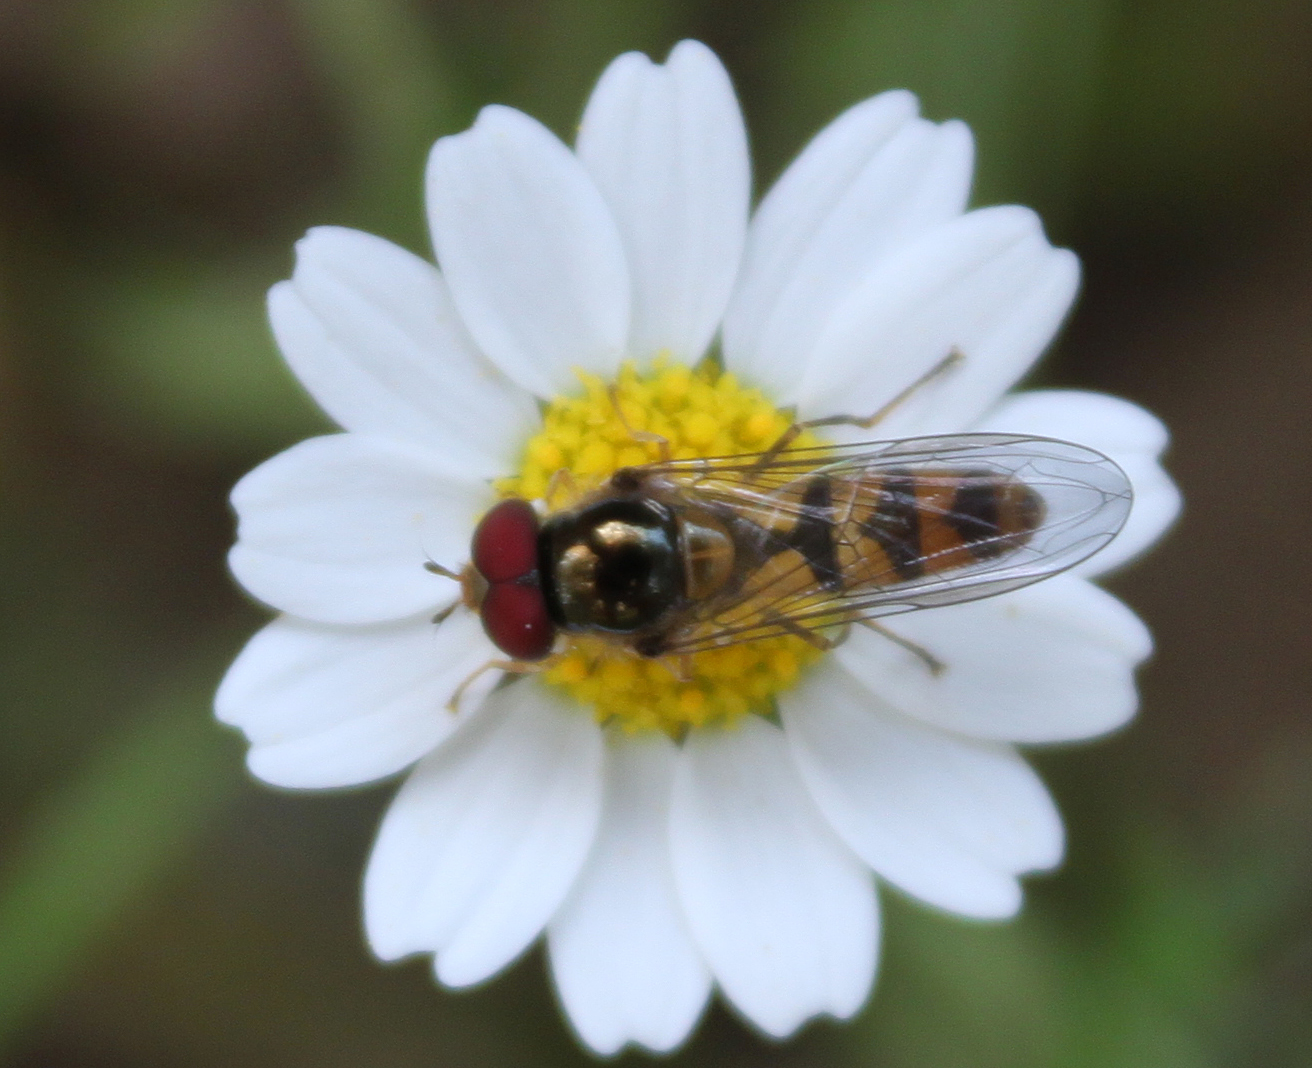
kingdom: Animalia
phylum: Arthropoda
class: Insecta
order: Diptera
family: Syrphidae
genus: Meliscaeva
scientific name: Meliscaeva auricollis
